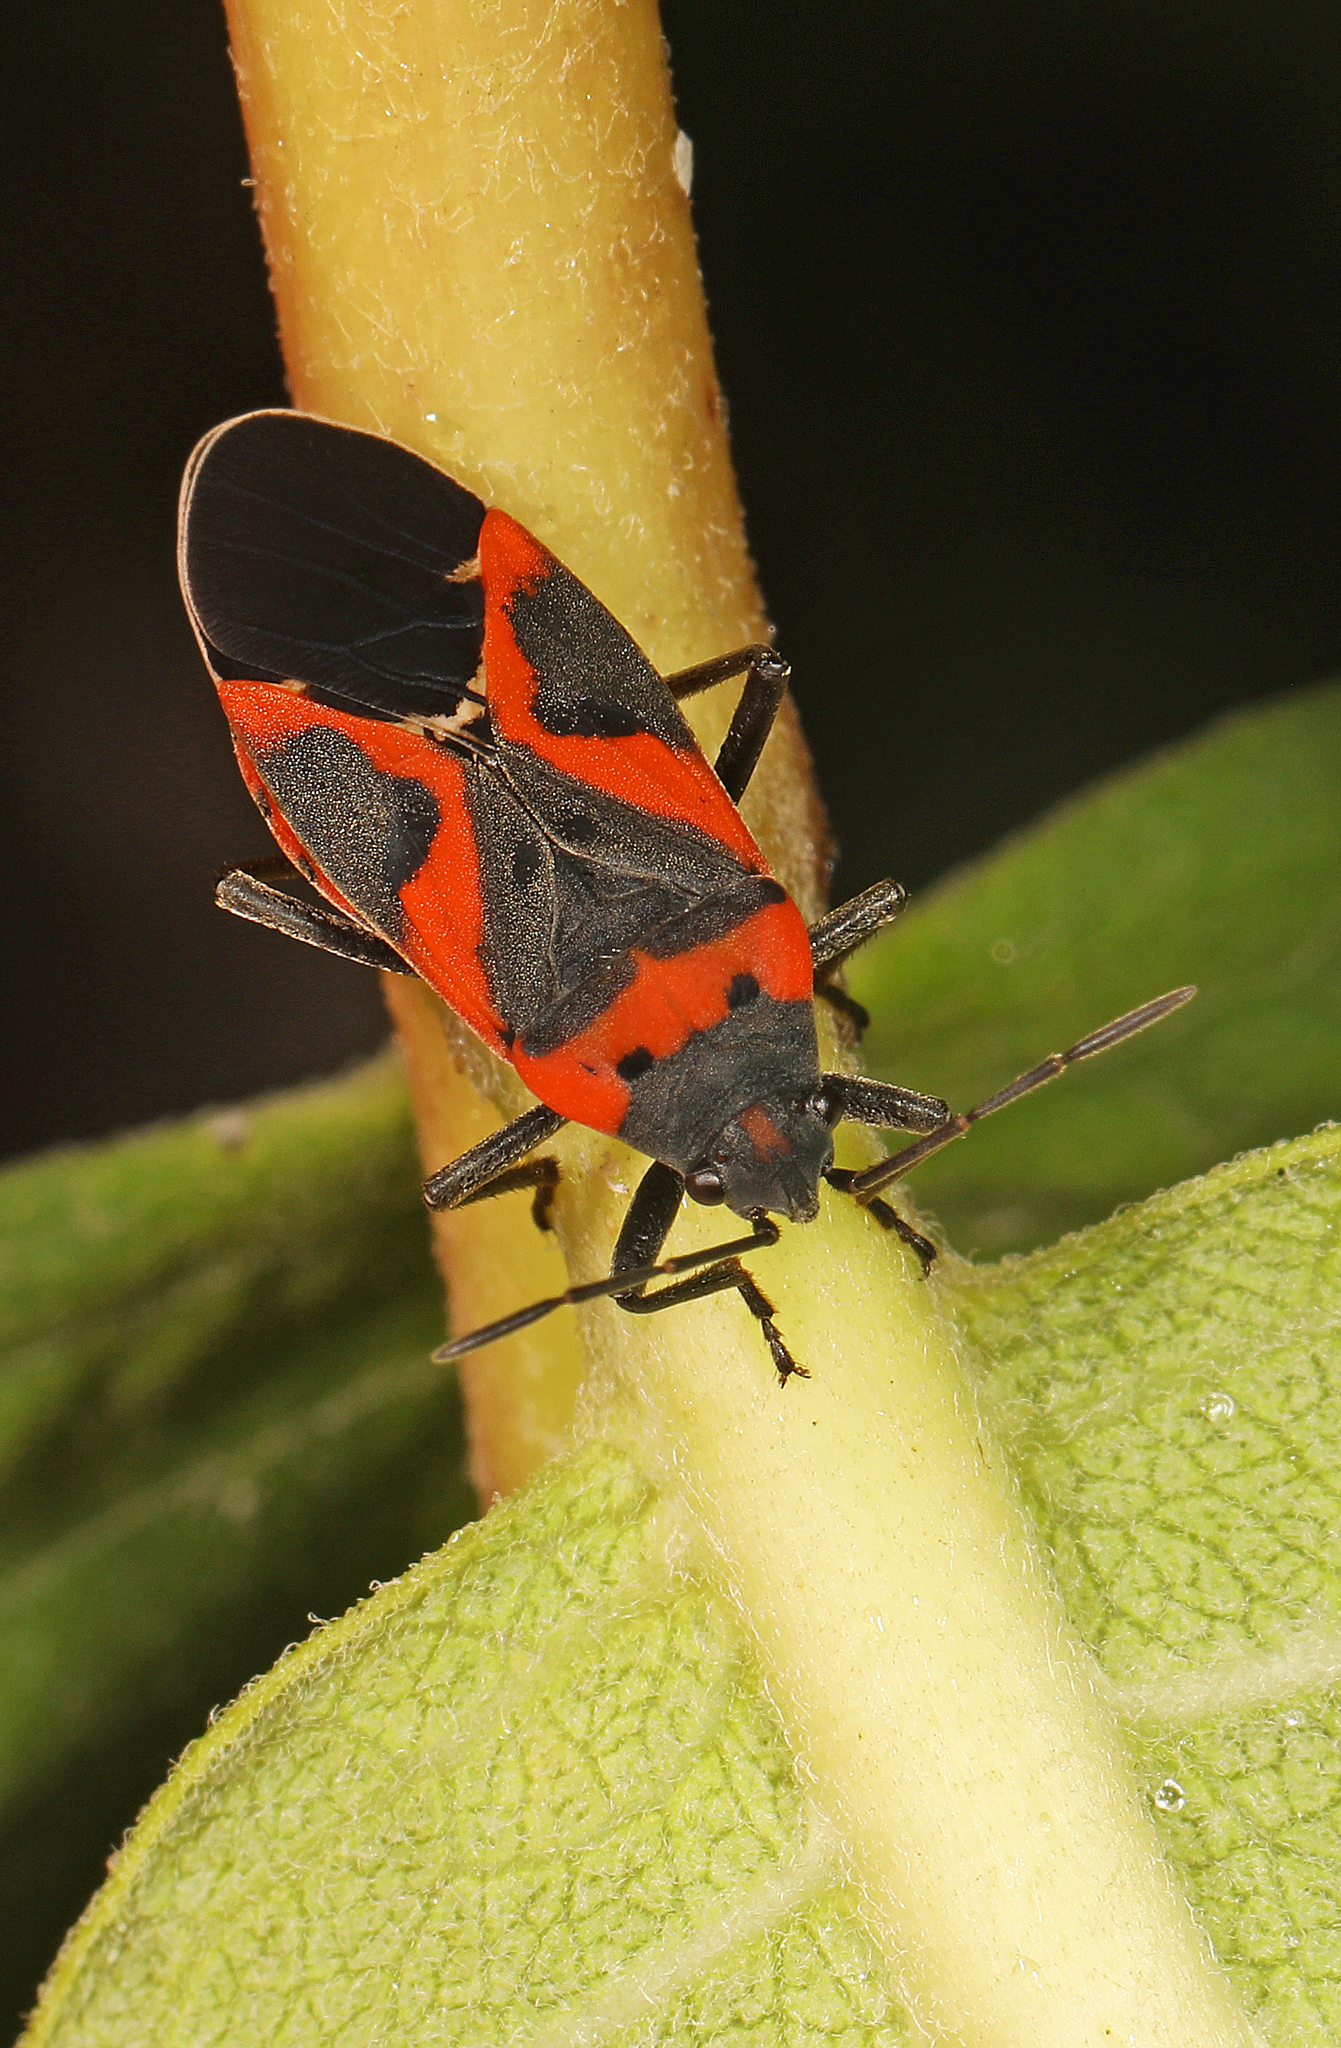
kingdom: Animalia
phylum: Arthropoda
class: Insecta
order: Hemiptera
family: Lygaeidae
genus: Lygaeus
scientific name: Lygaeus kalmii
